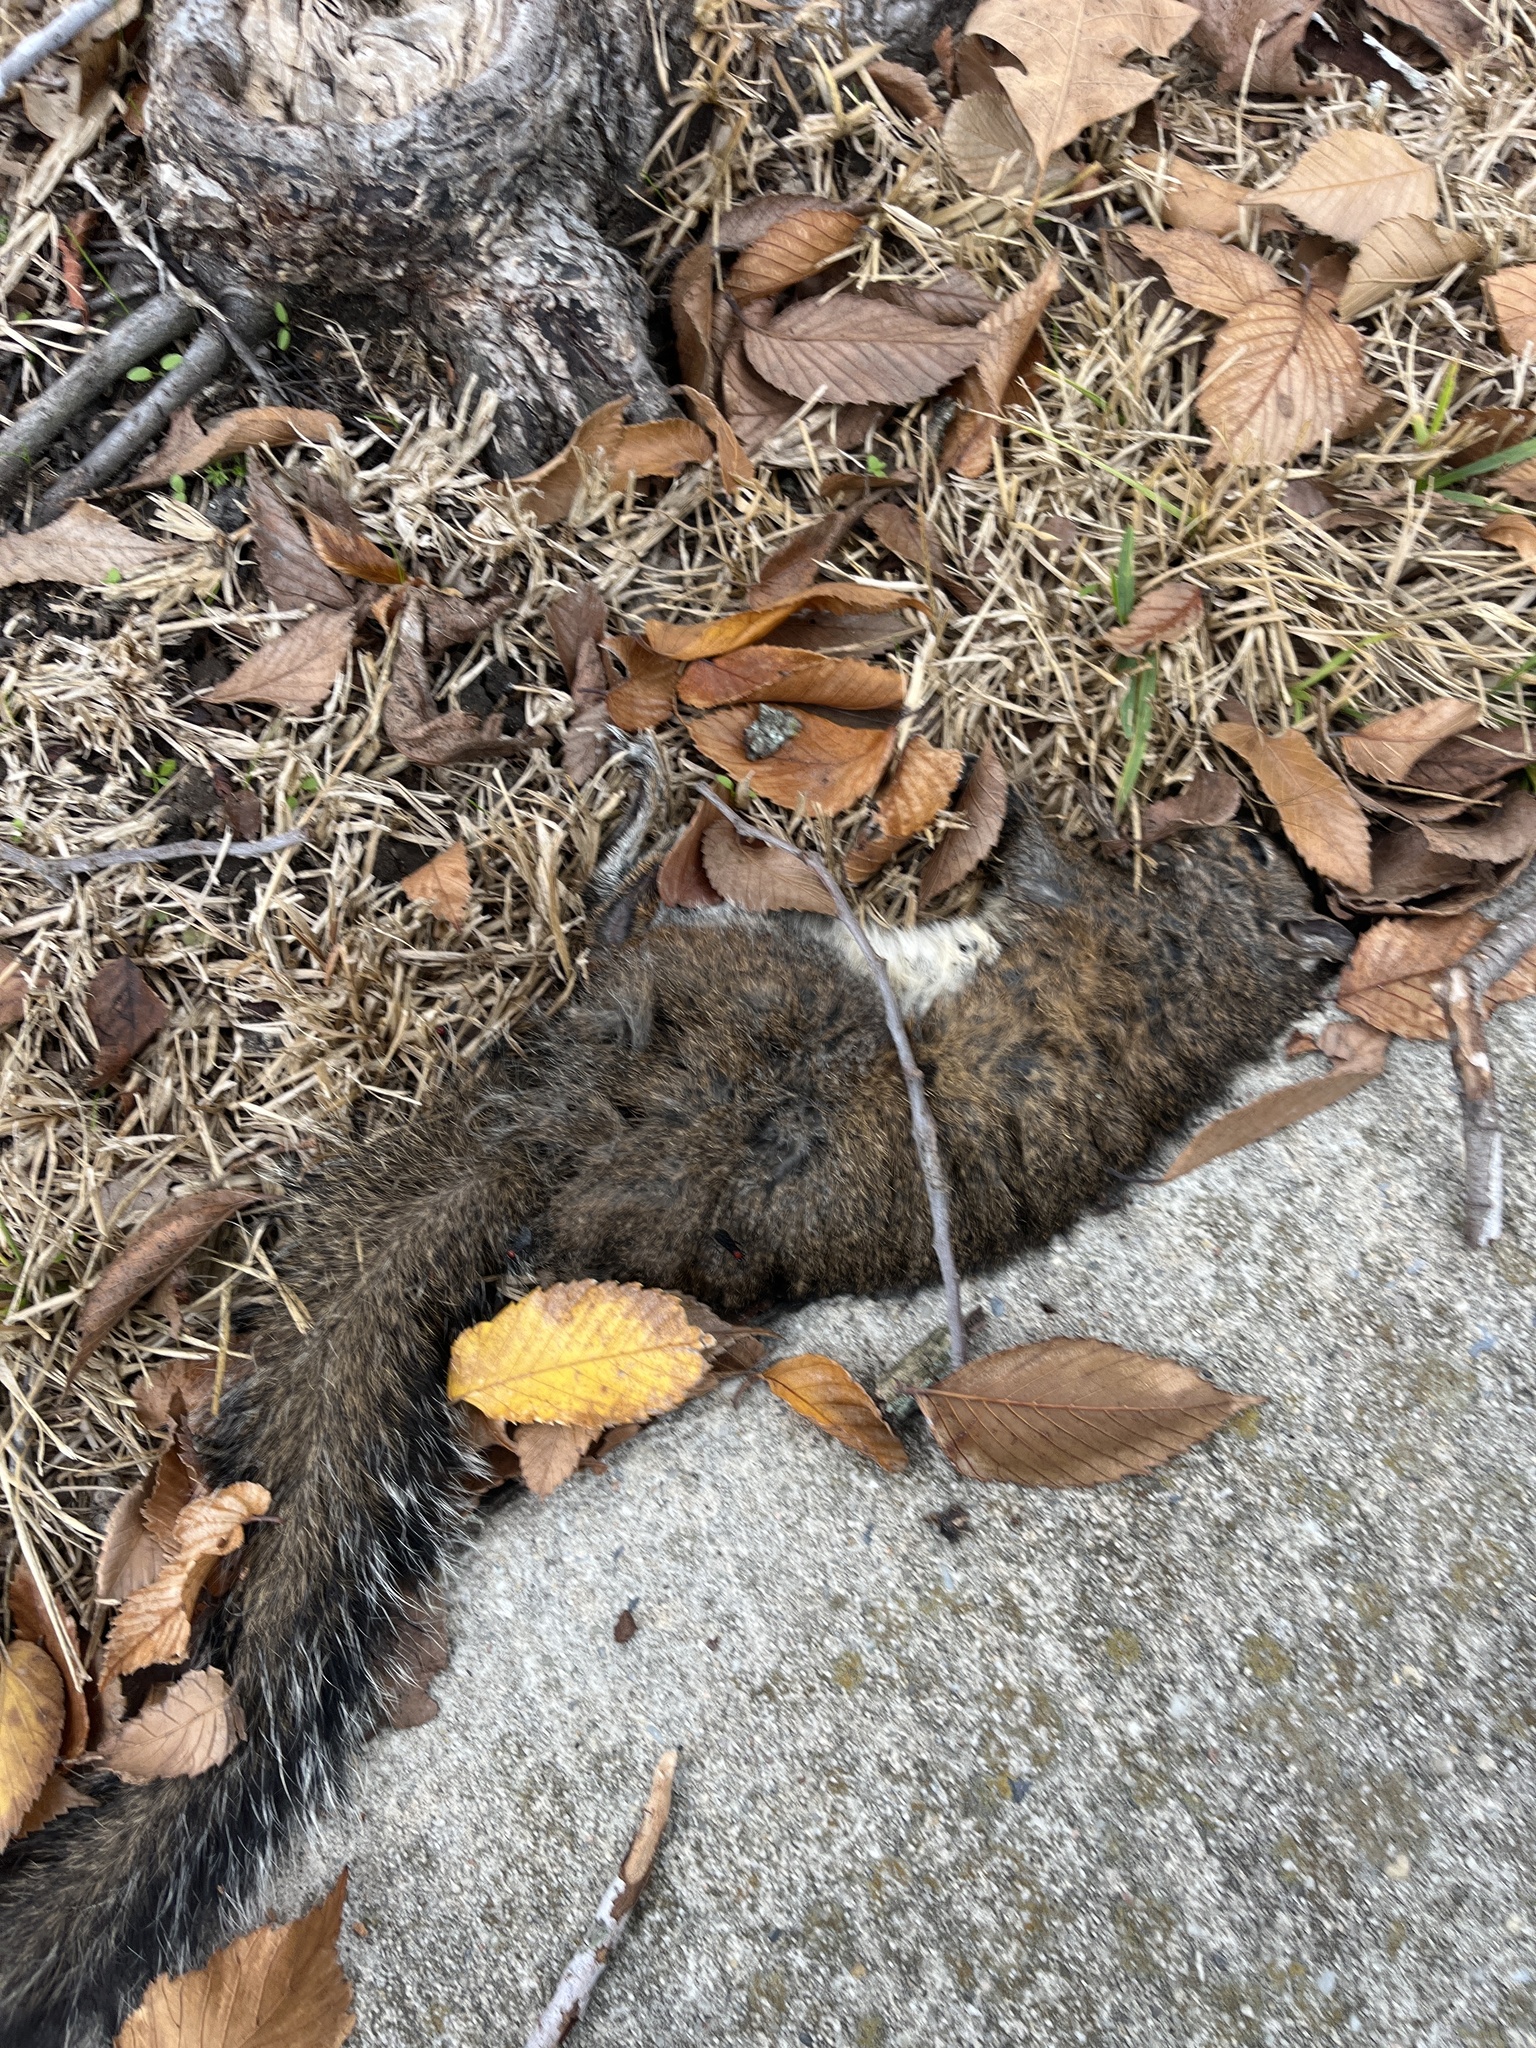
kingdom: Animalia
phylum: Chordata
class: Mammalia
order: Rodentia
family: Sciuridae
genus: Sciurus
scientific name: Sciurus carolinensis
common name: Eastern gray squirrel
